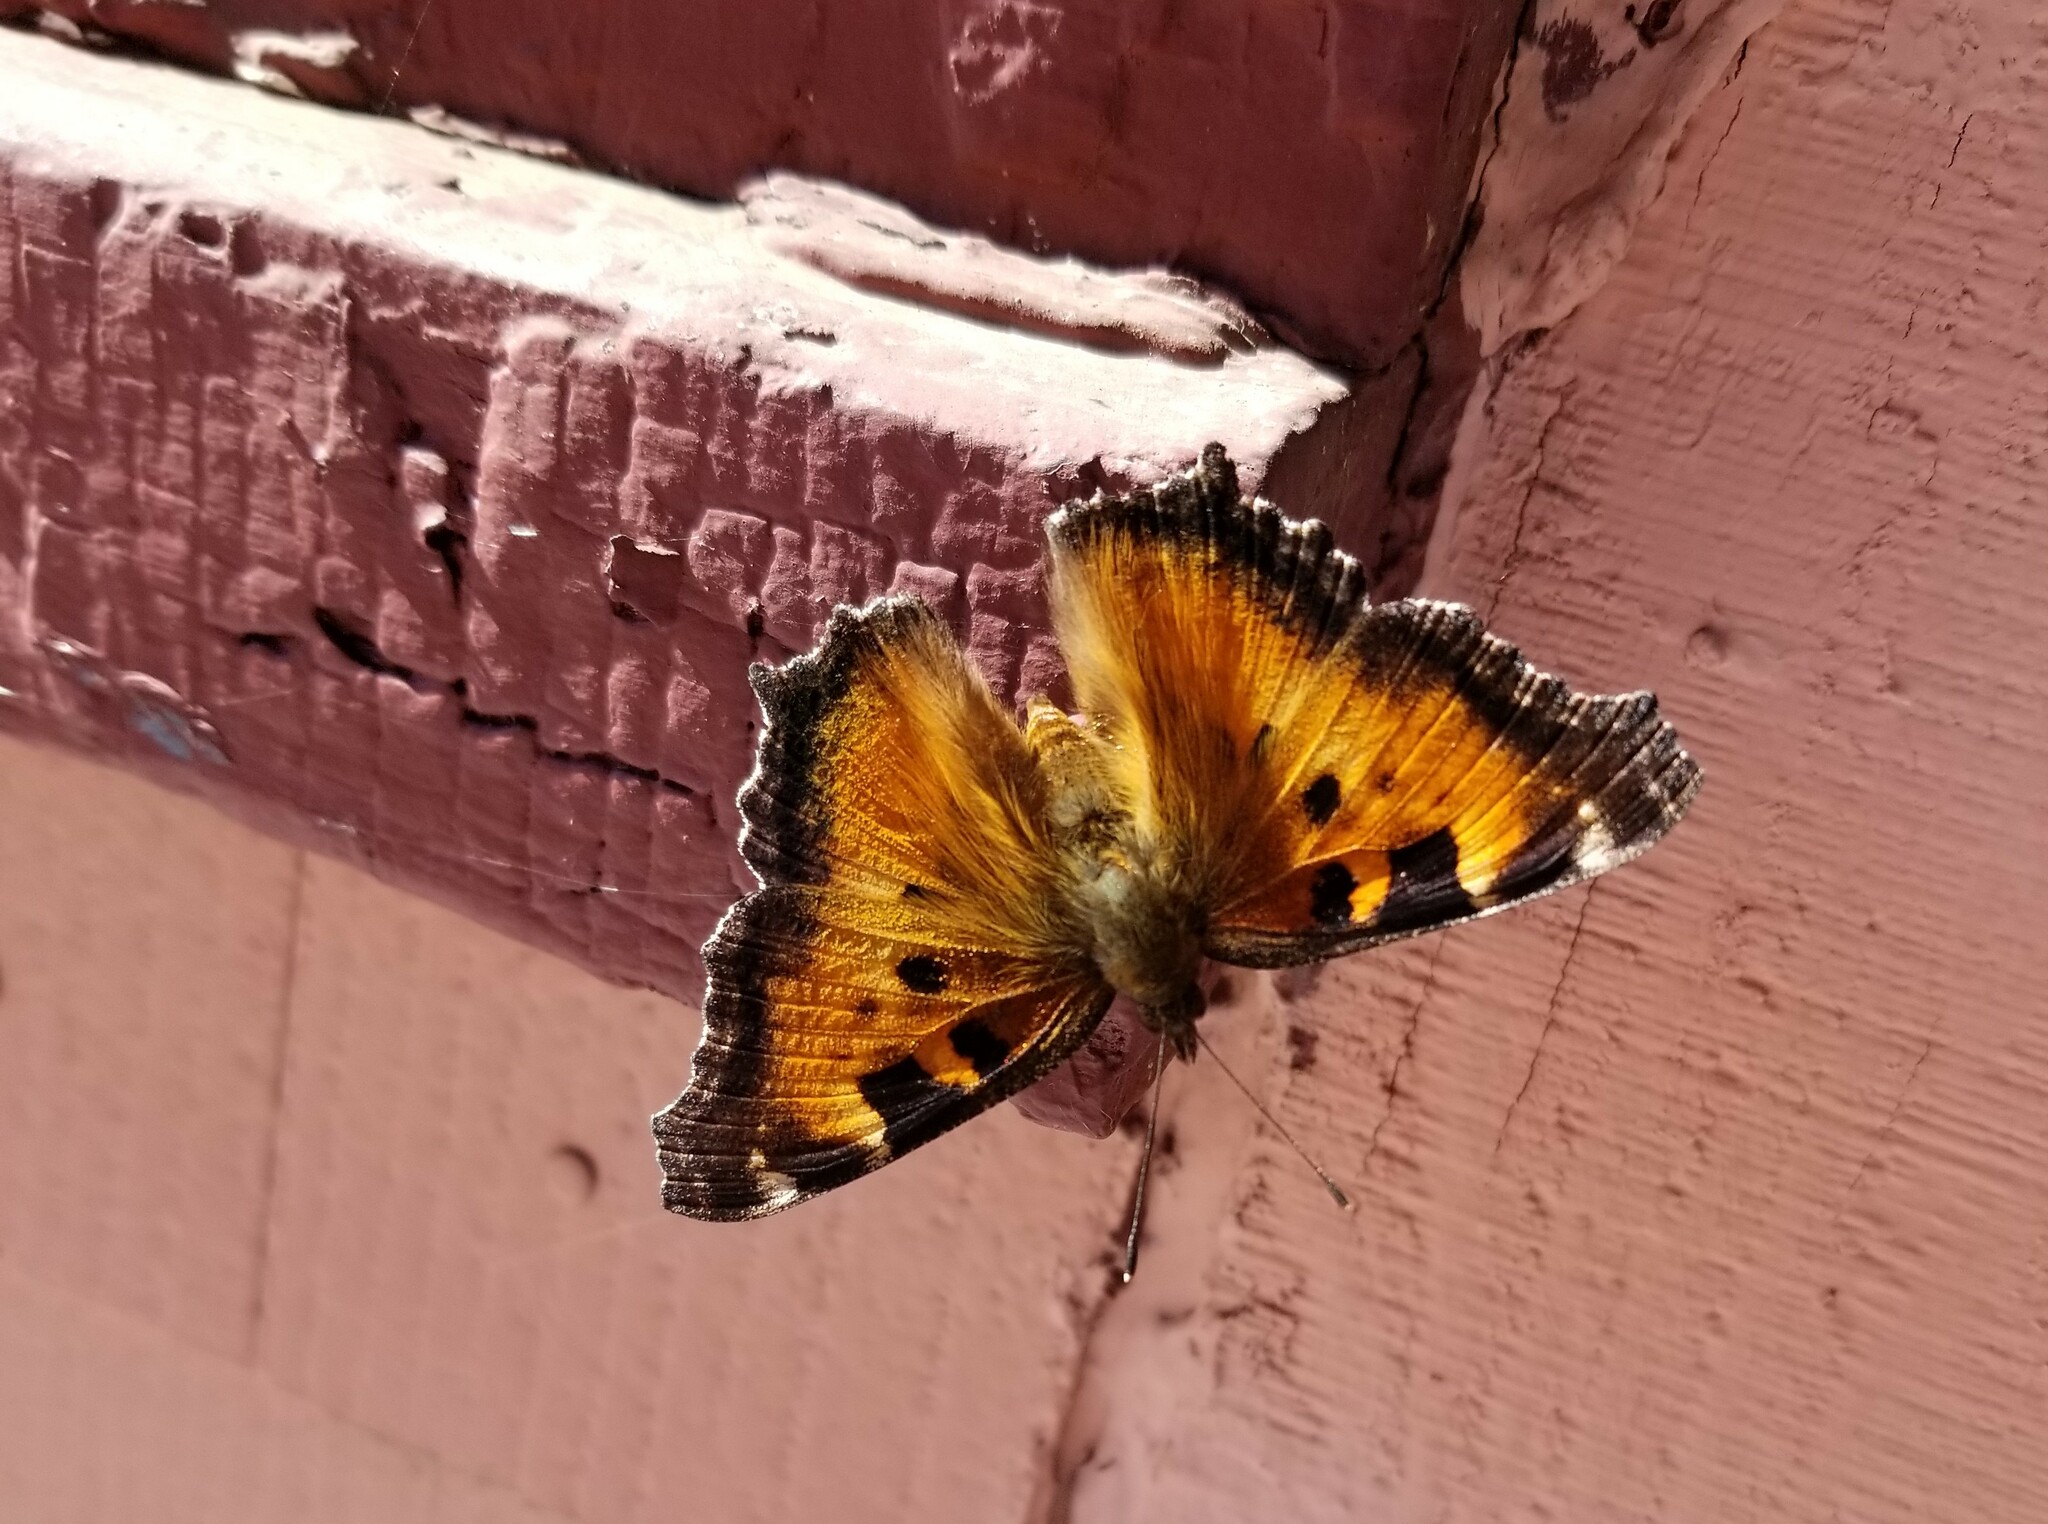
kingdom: Animalia
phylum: Arthropoda
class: Insecta
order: Lepidoptera
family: Nymphalidae
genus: Nymphalis
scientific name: Nymphalis californica
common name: California tortoiseshell
